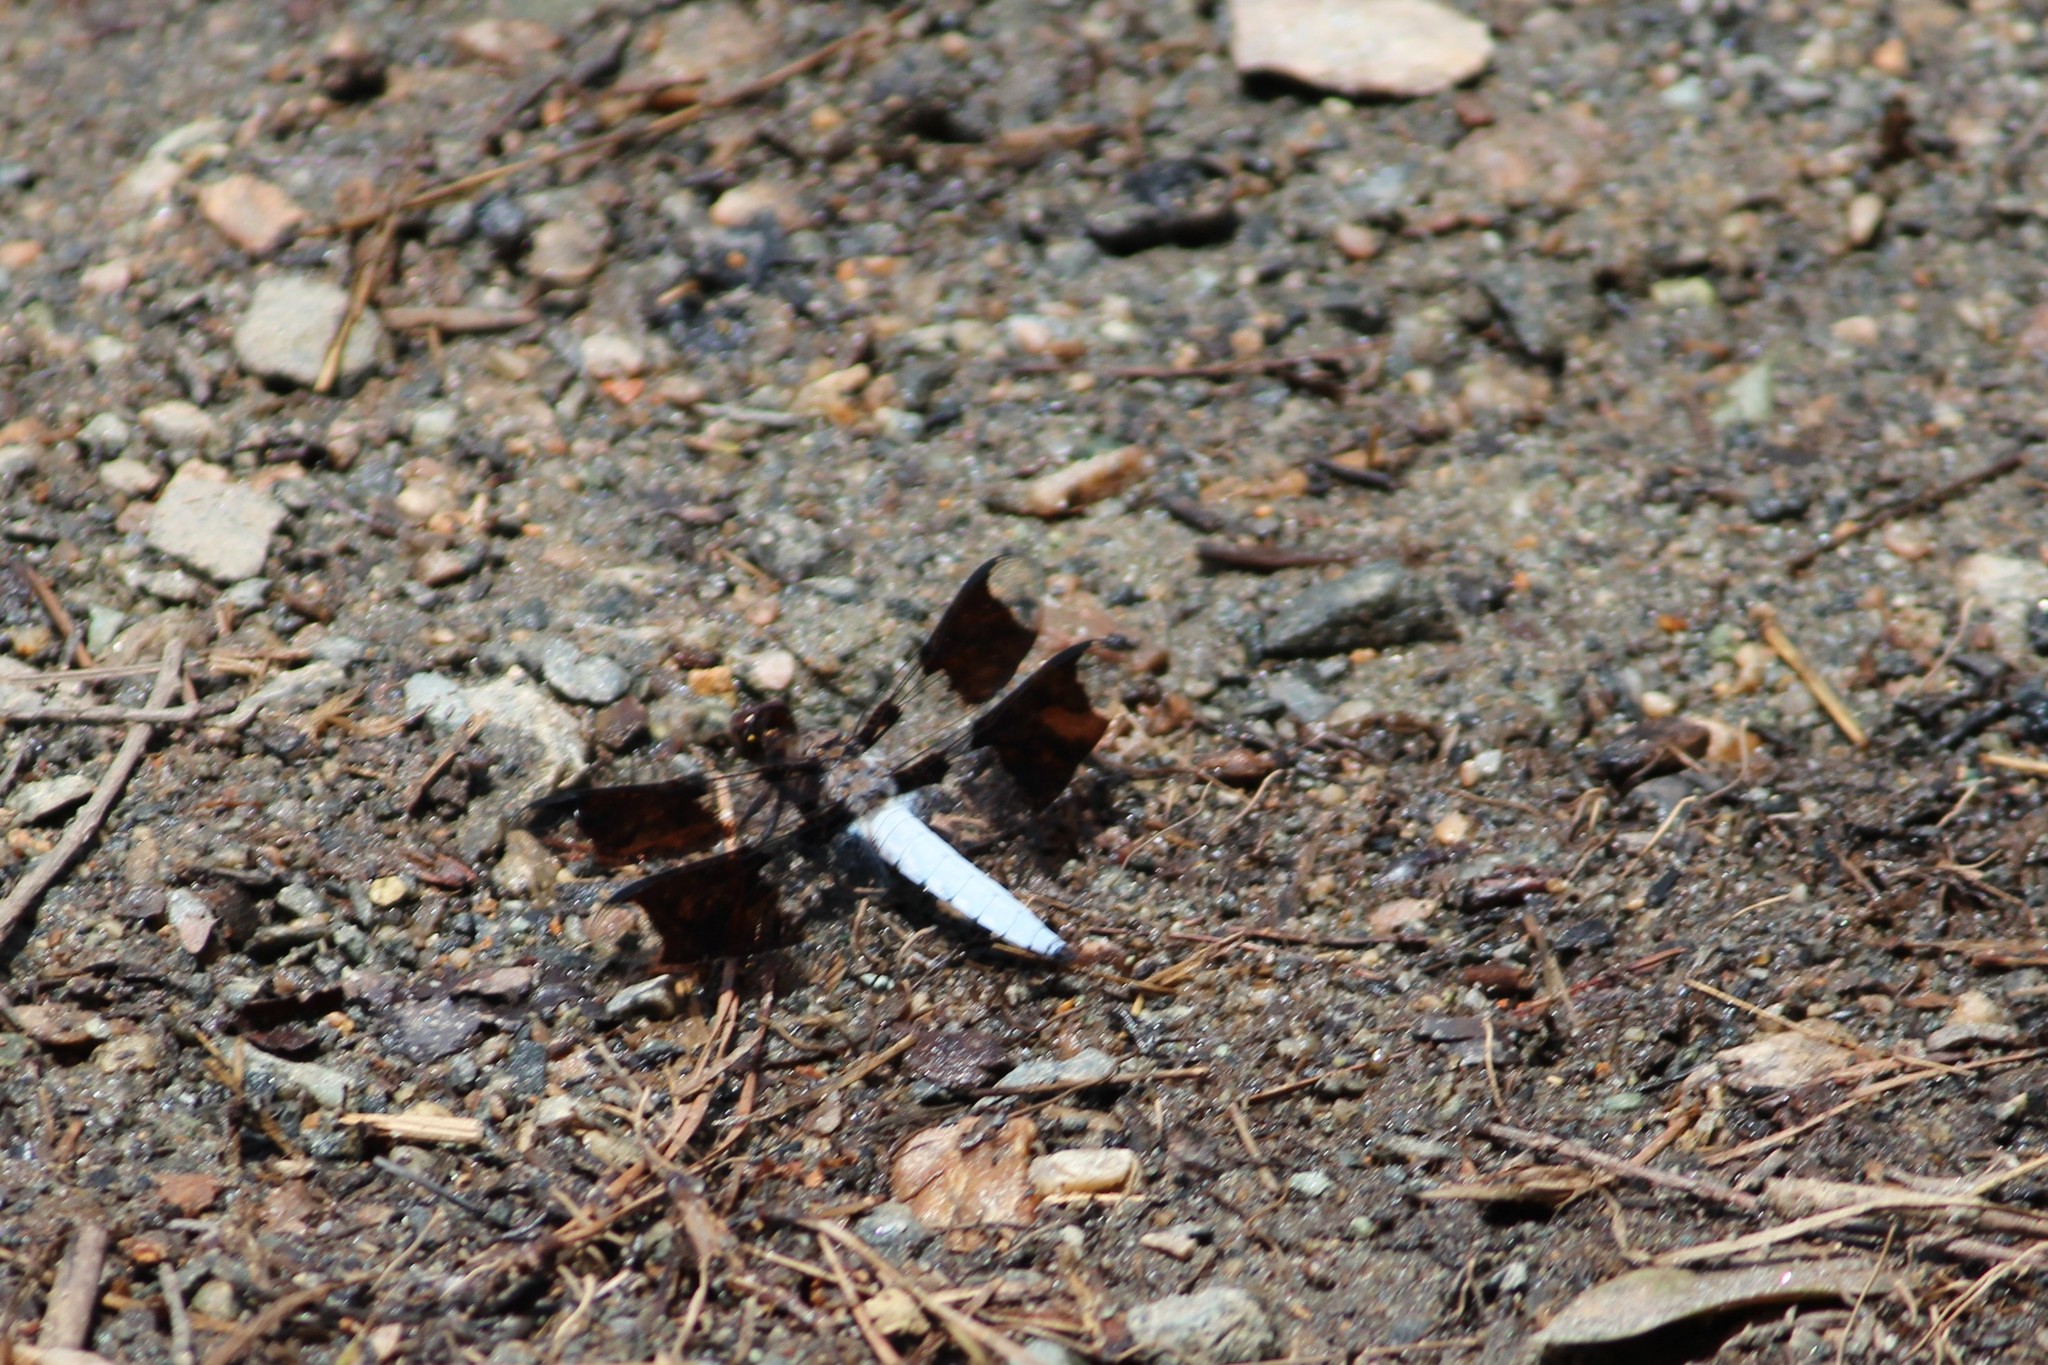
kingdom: Animalia
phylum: Arthropoda
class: Insecta
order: Odonata
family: Libellulidae
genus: Plathemis
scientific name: Plathemis lydia
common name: Common whitetail
